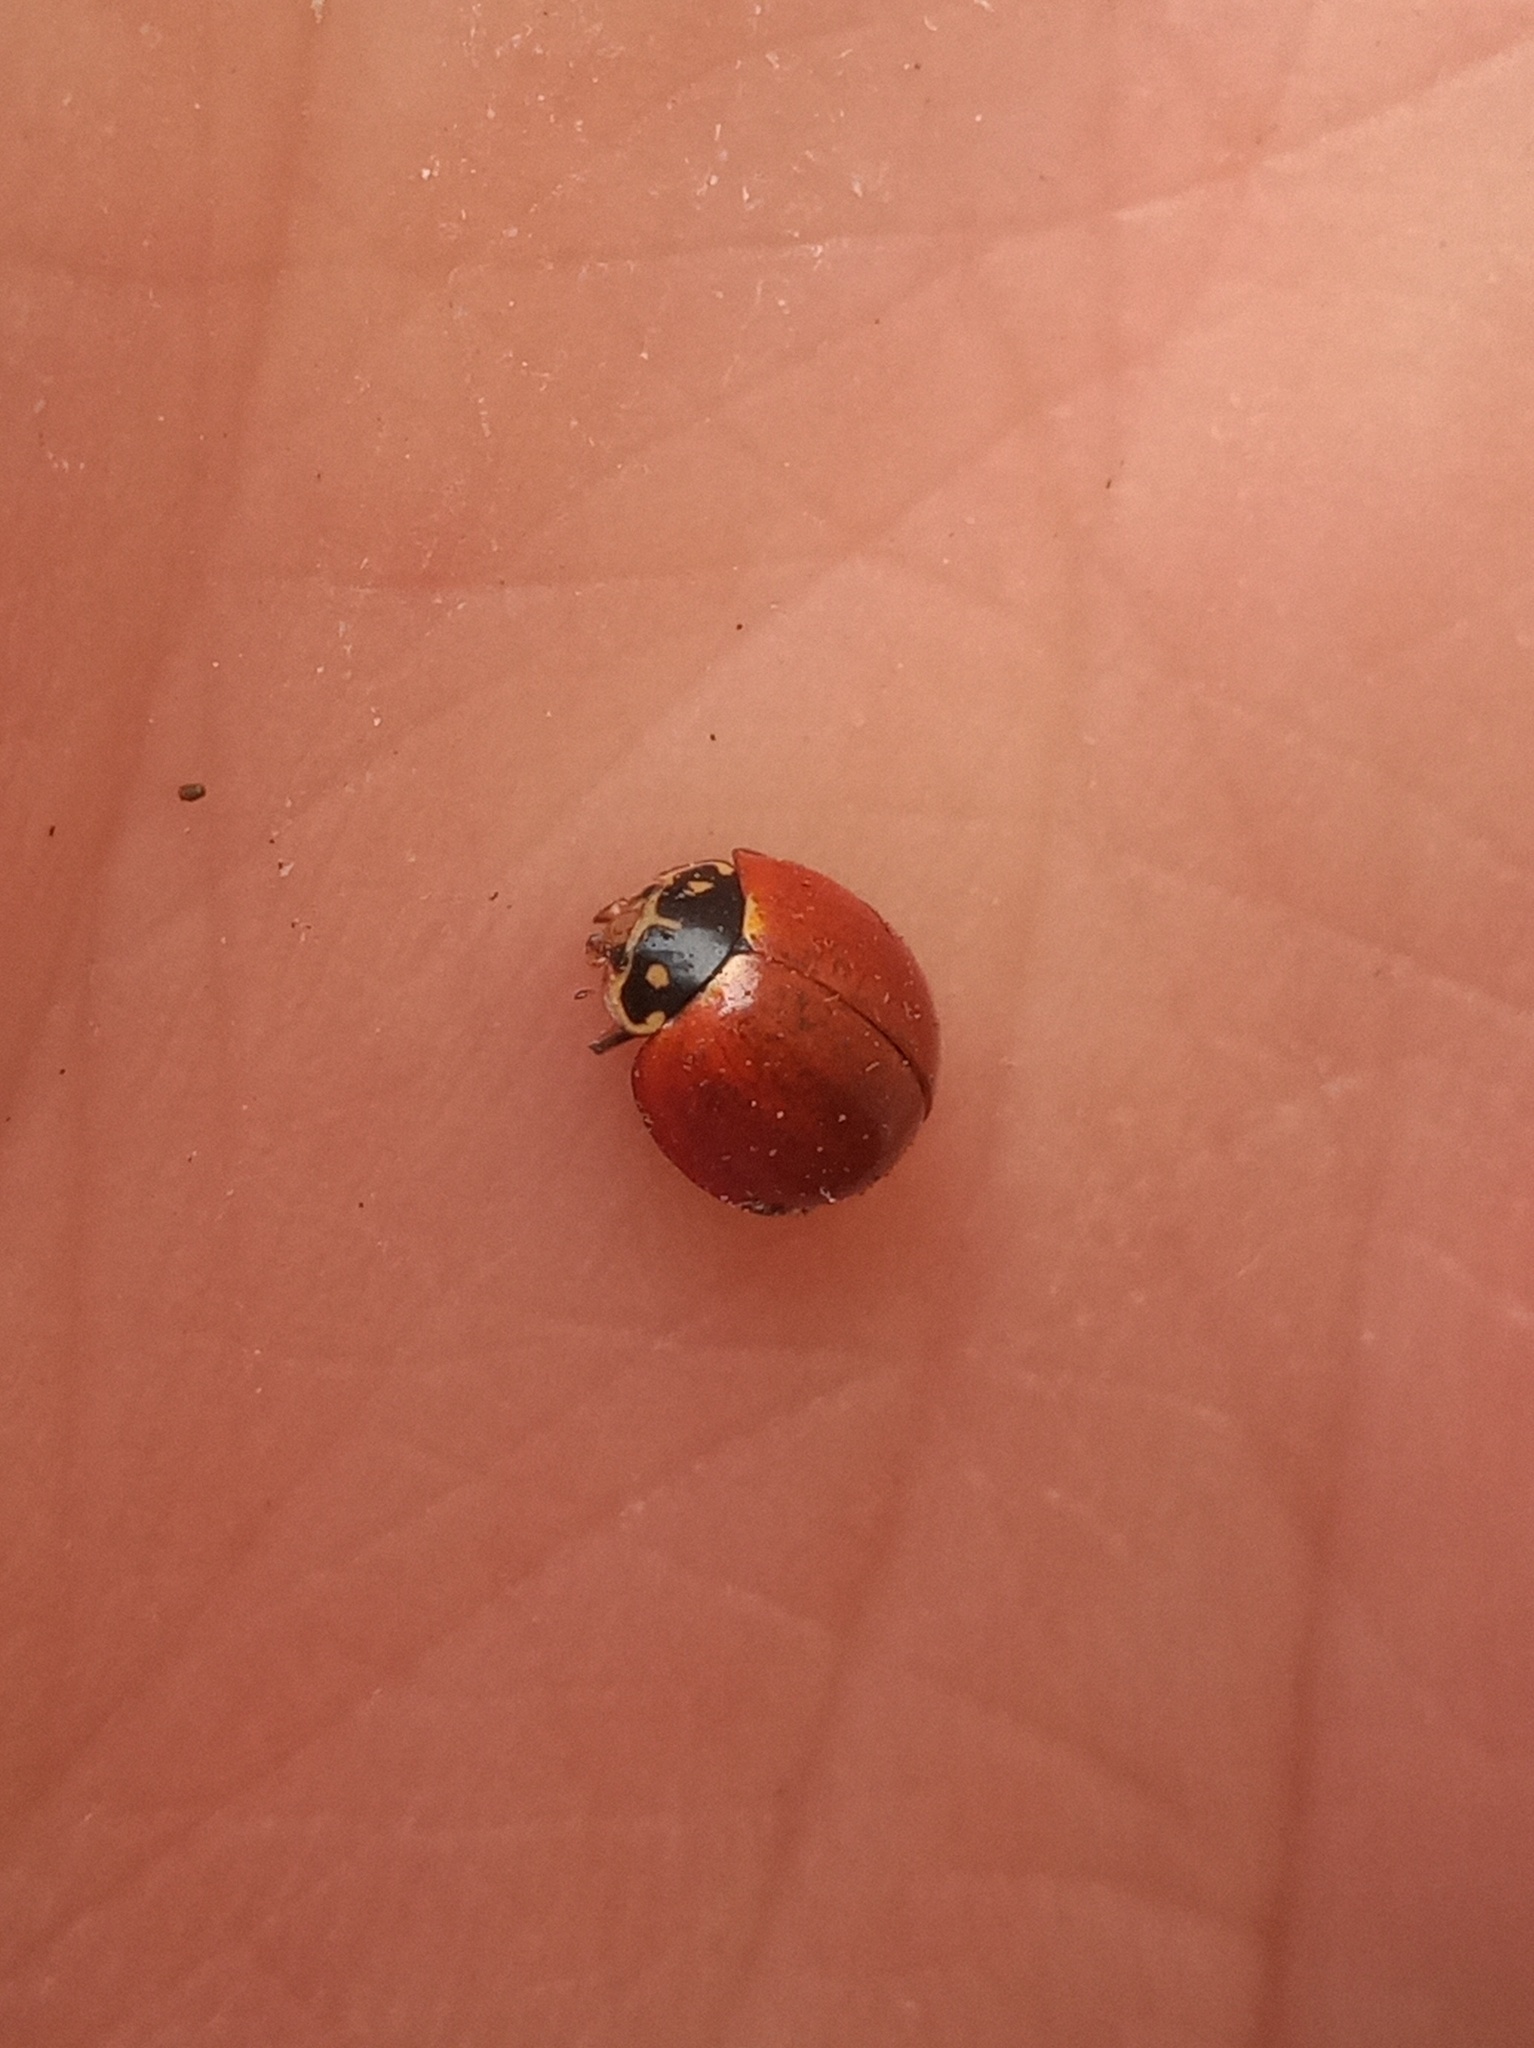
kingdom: Animalia
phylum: Arthropoda
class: Insecta
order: Coleoptera
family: Coccinellidae
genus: Cycloneda
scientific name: Cycloneda sanguinea
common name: Ladybird beetle
